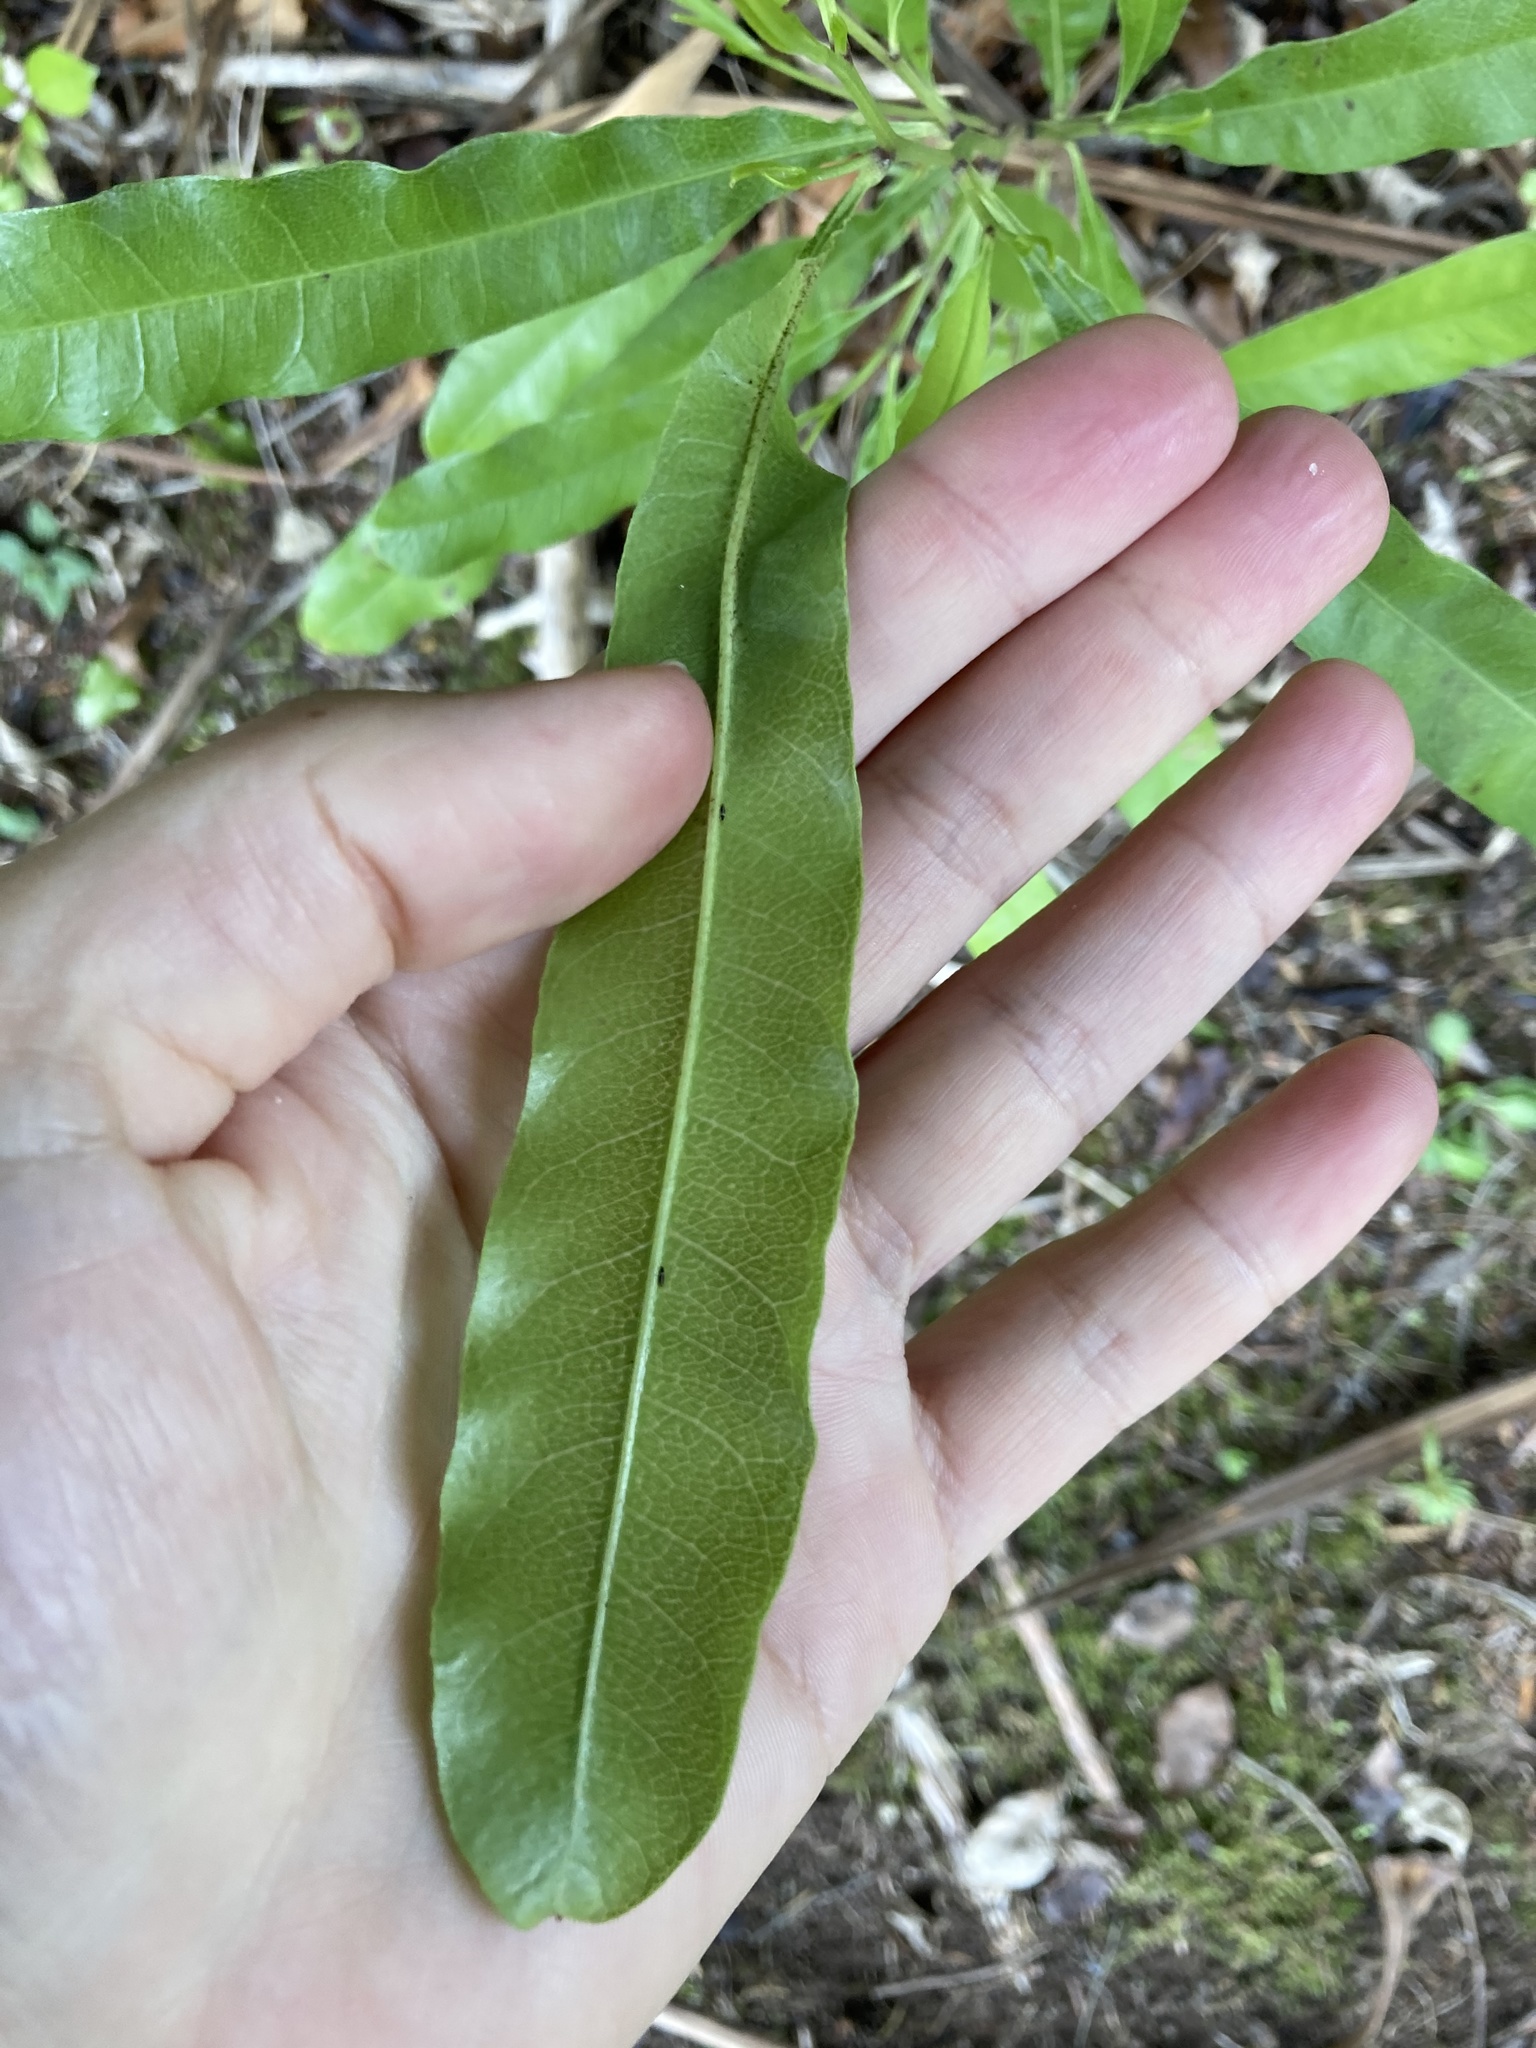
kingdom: Plantae
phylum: Tracheophyta
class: Magnoliopsida
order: Sapindales
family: Sapindaceae
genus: Dodonaea
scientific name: Dodonaea viscosa
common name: Hopbush
